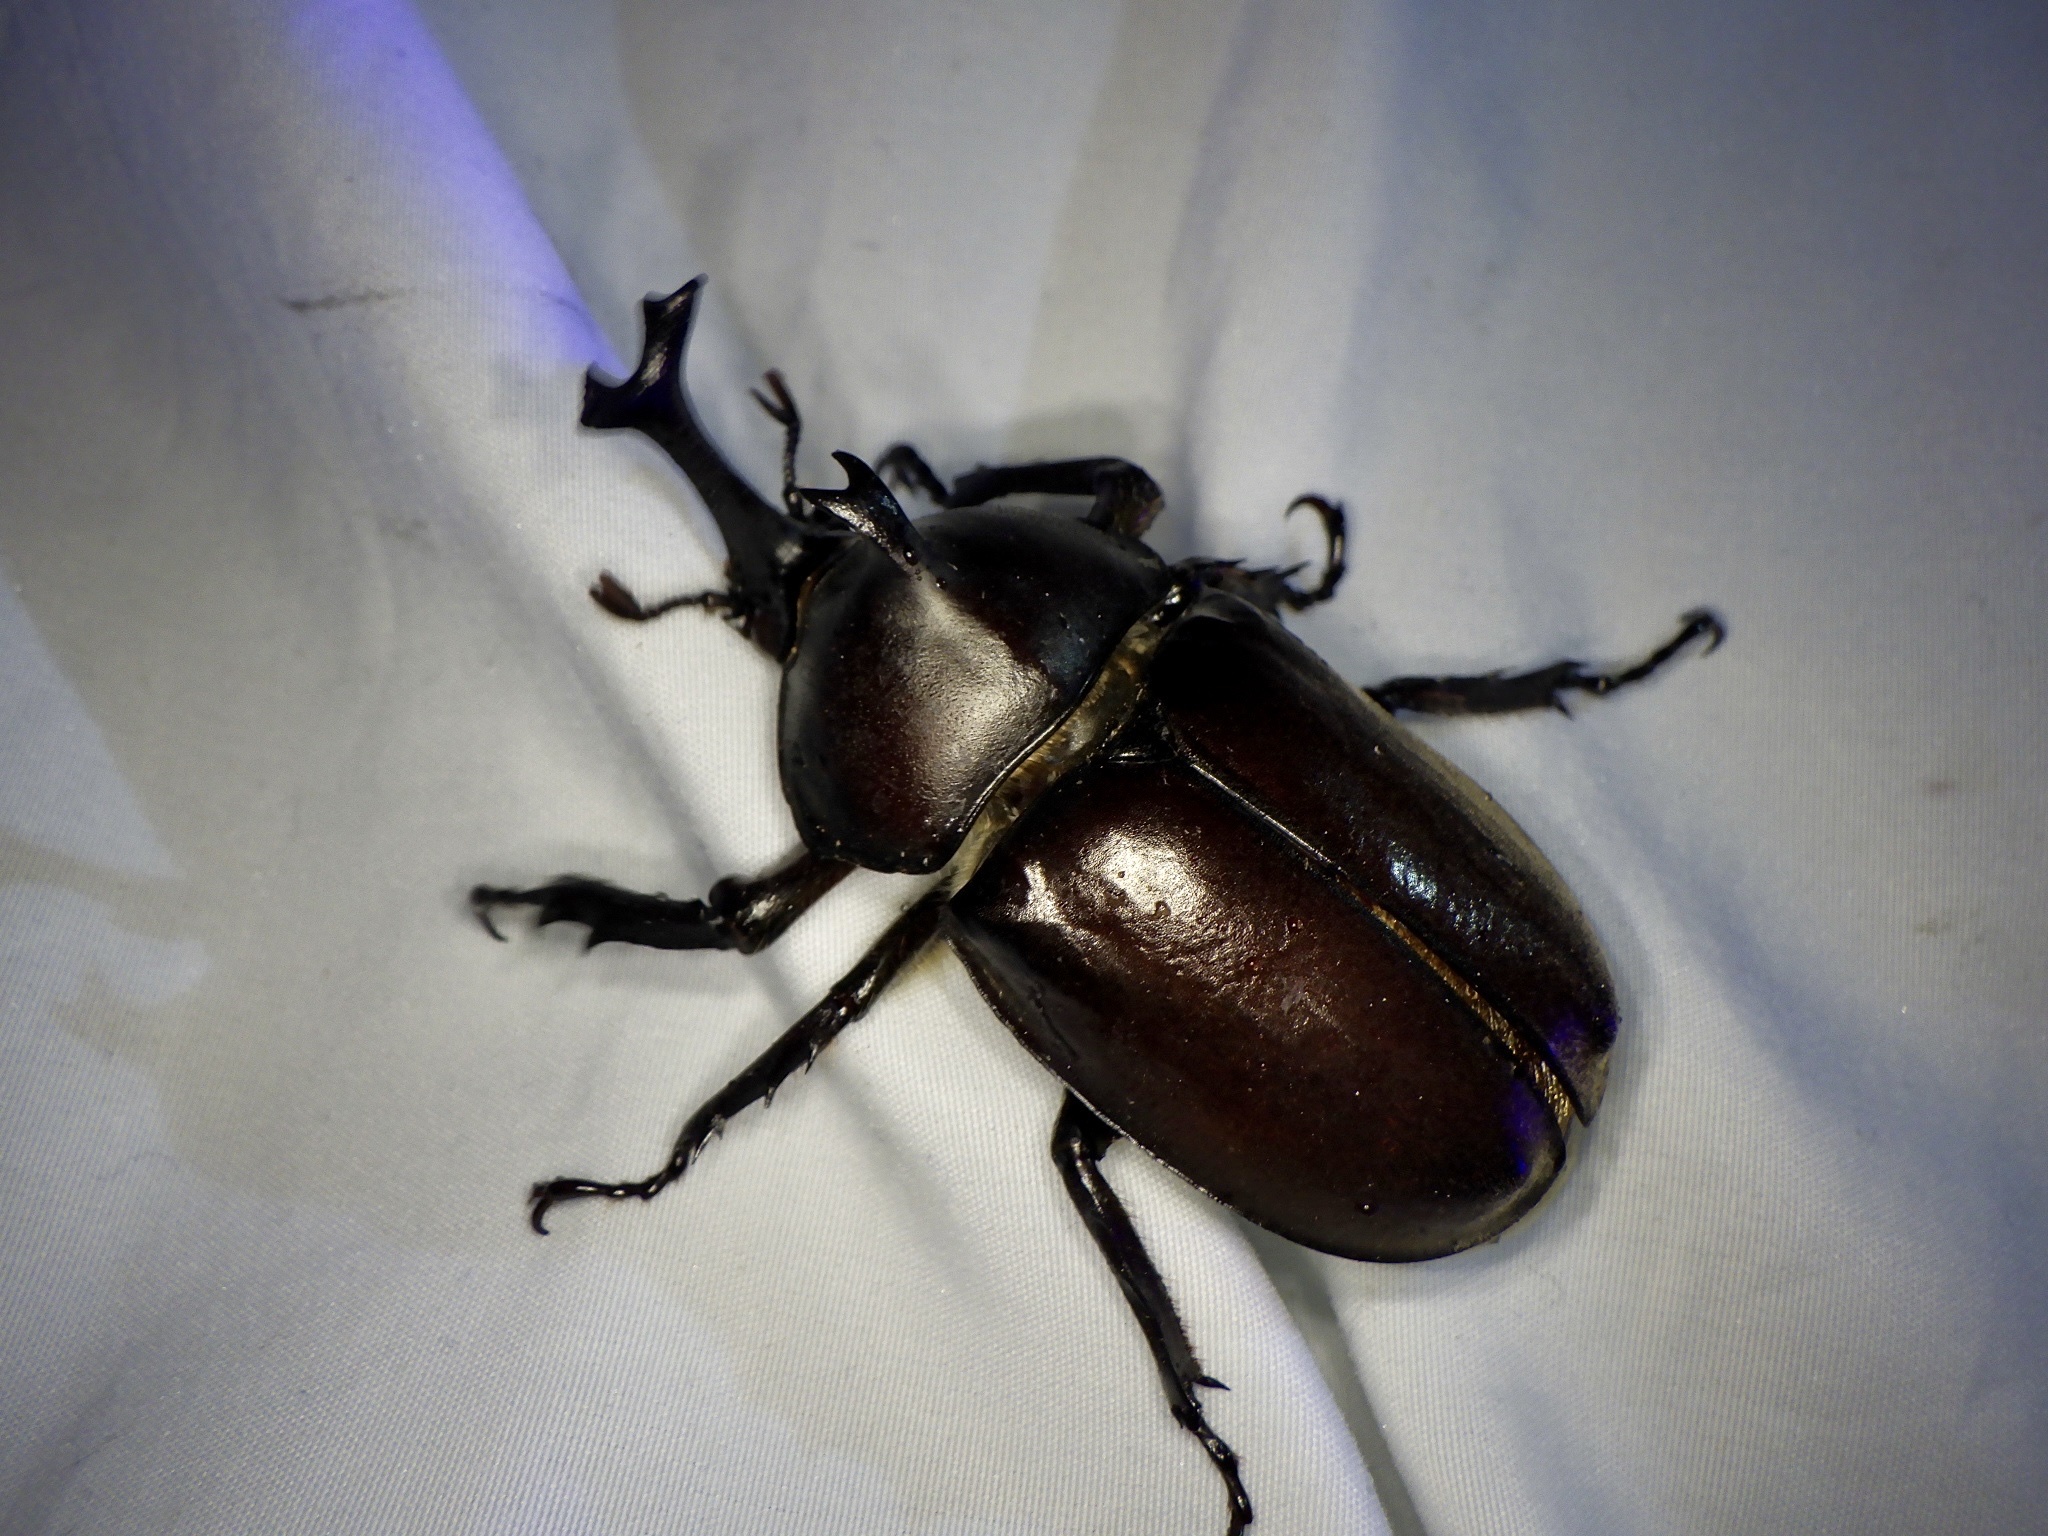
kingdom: Animalia
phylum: Arthropoda
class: Insecta
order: Coleoptera
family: Scarabaeidae
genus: Trypoxylus
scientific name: Trypoxylus dichotomus
